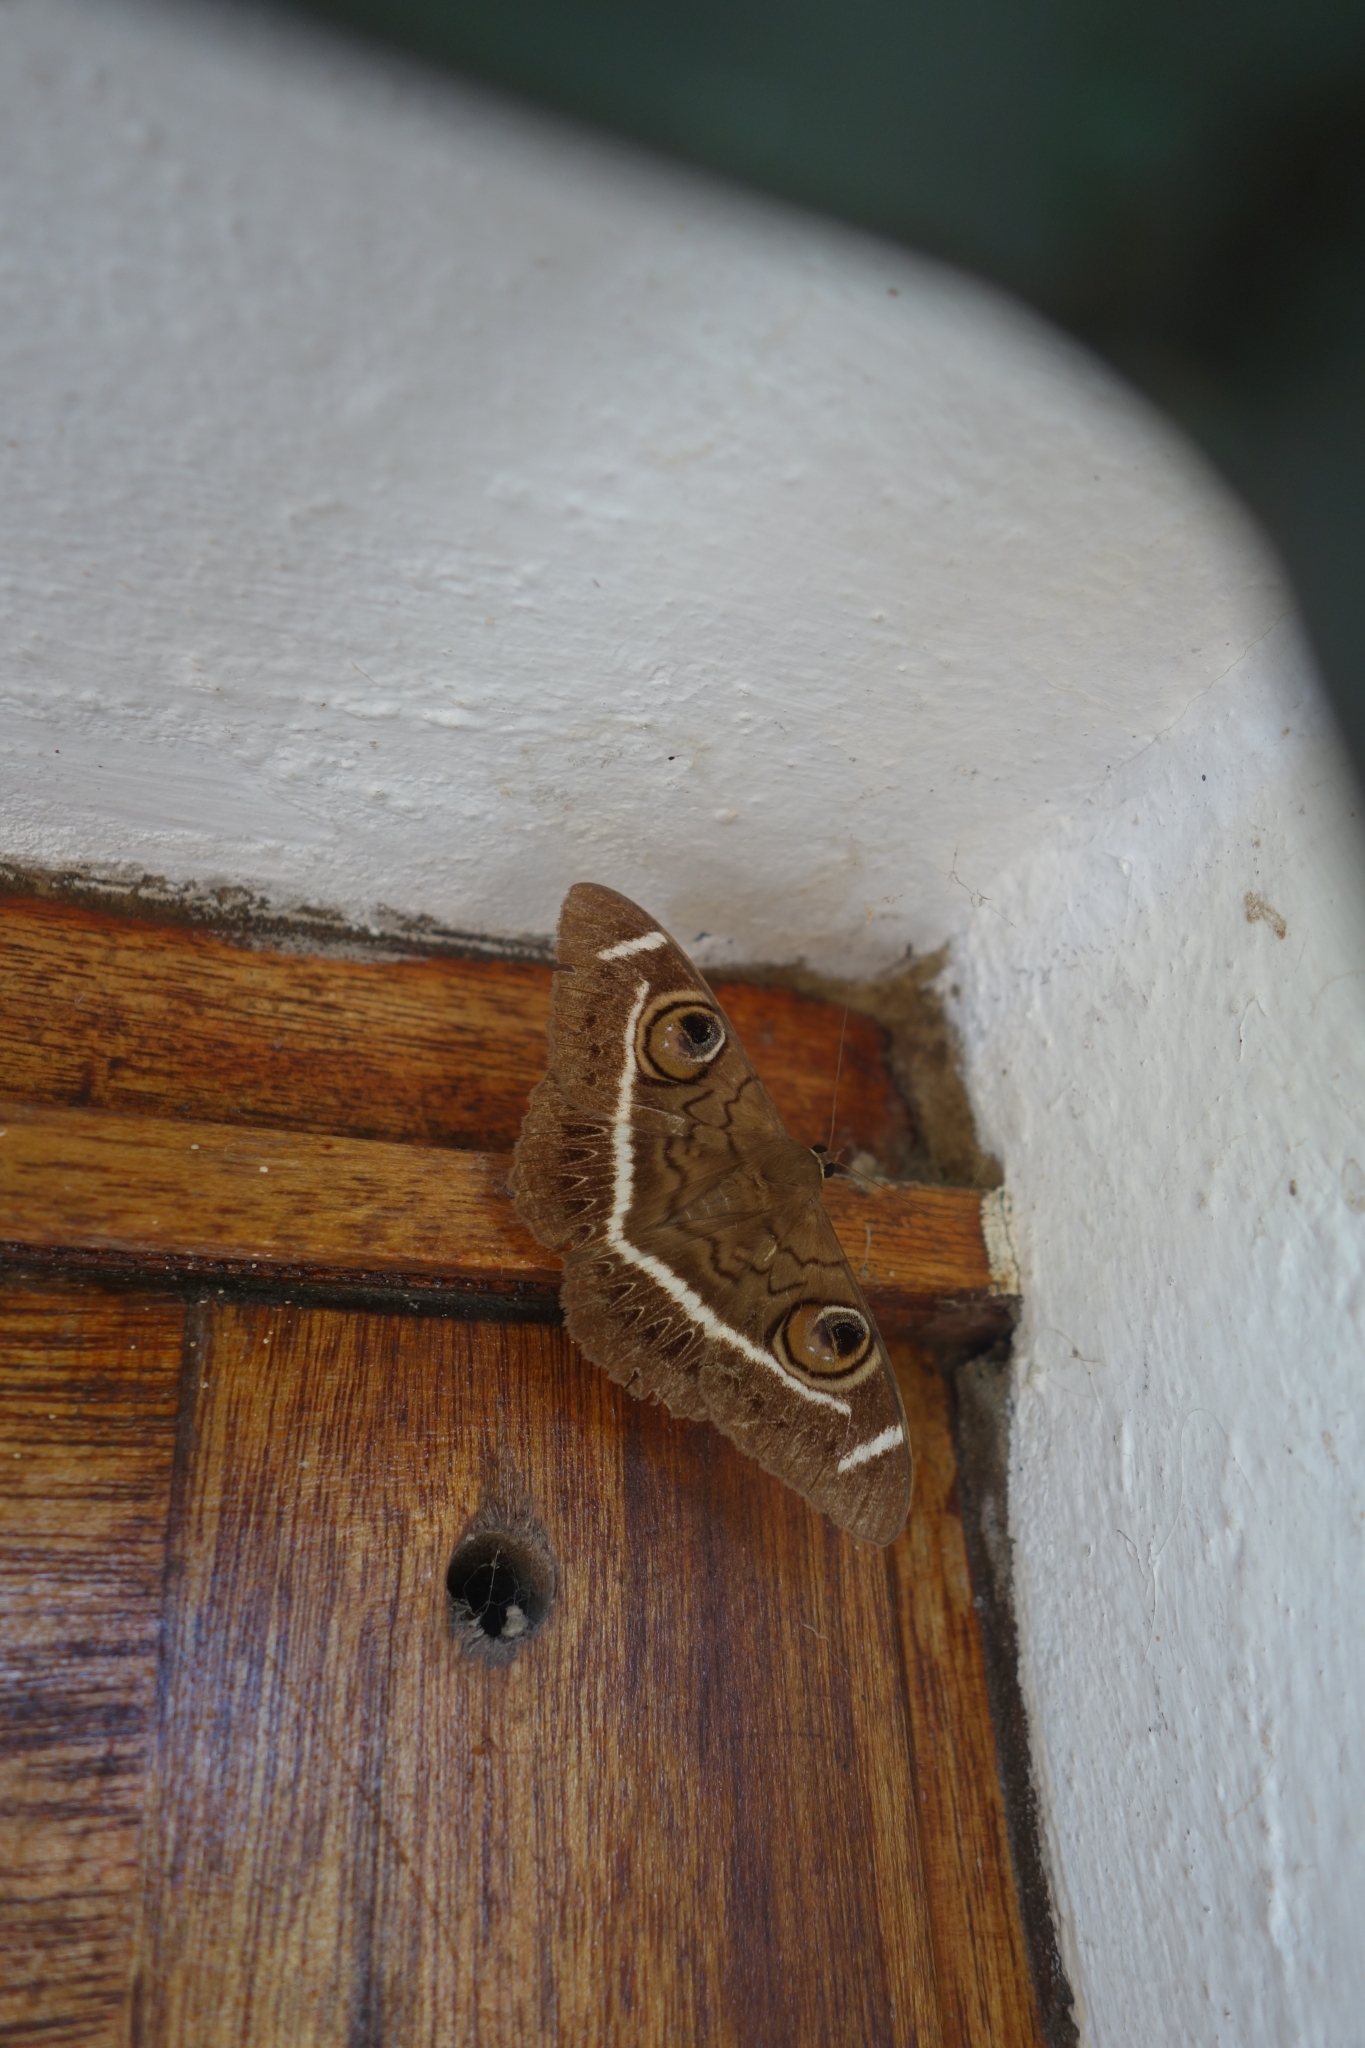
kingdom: Animalia
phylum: Arthropoda
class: Insecta
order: Lepidoptera
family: Erebidae
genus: Cyligramma
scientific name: Cyligramma latona
